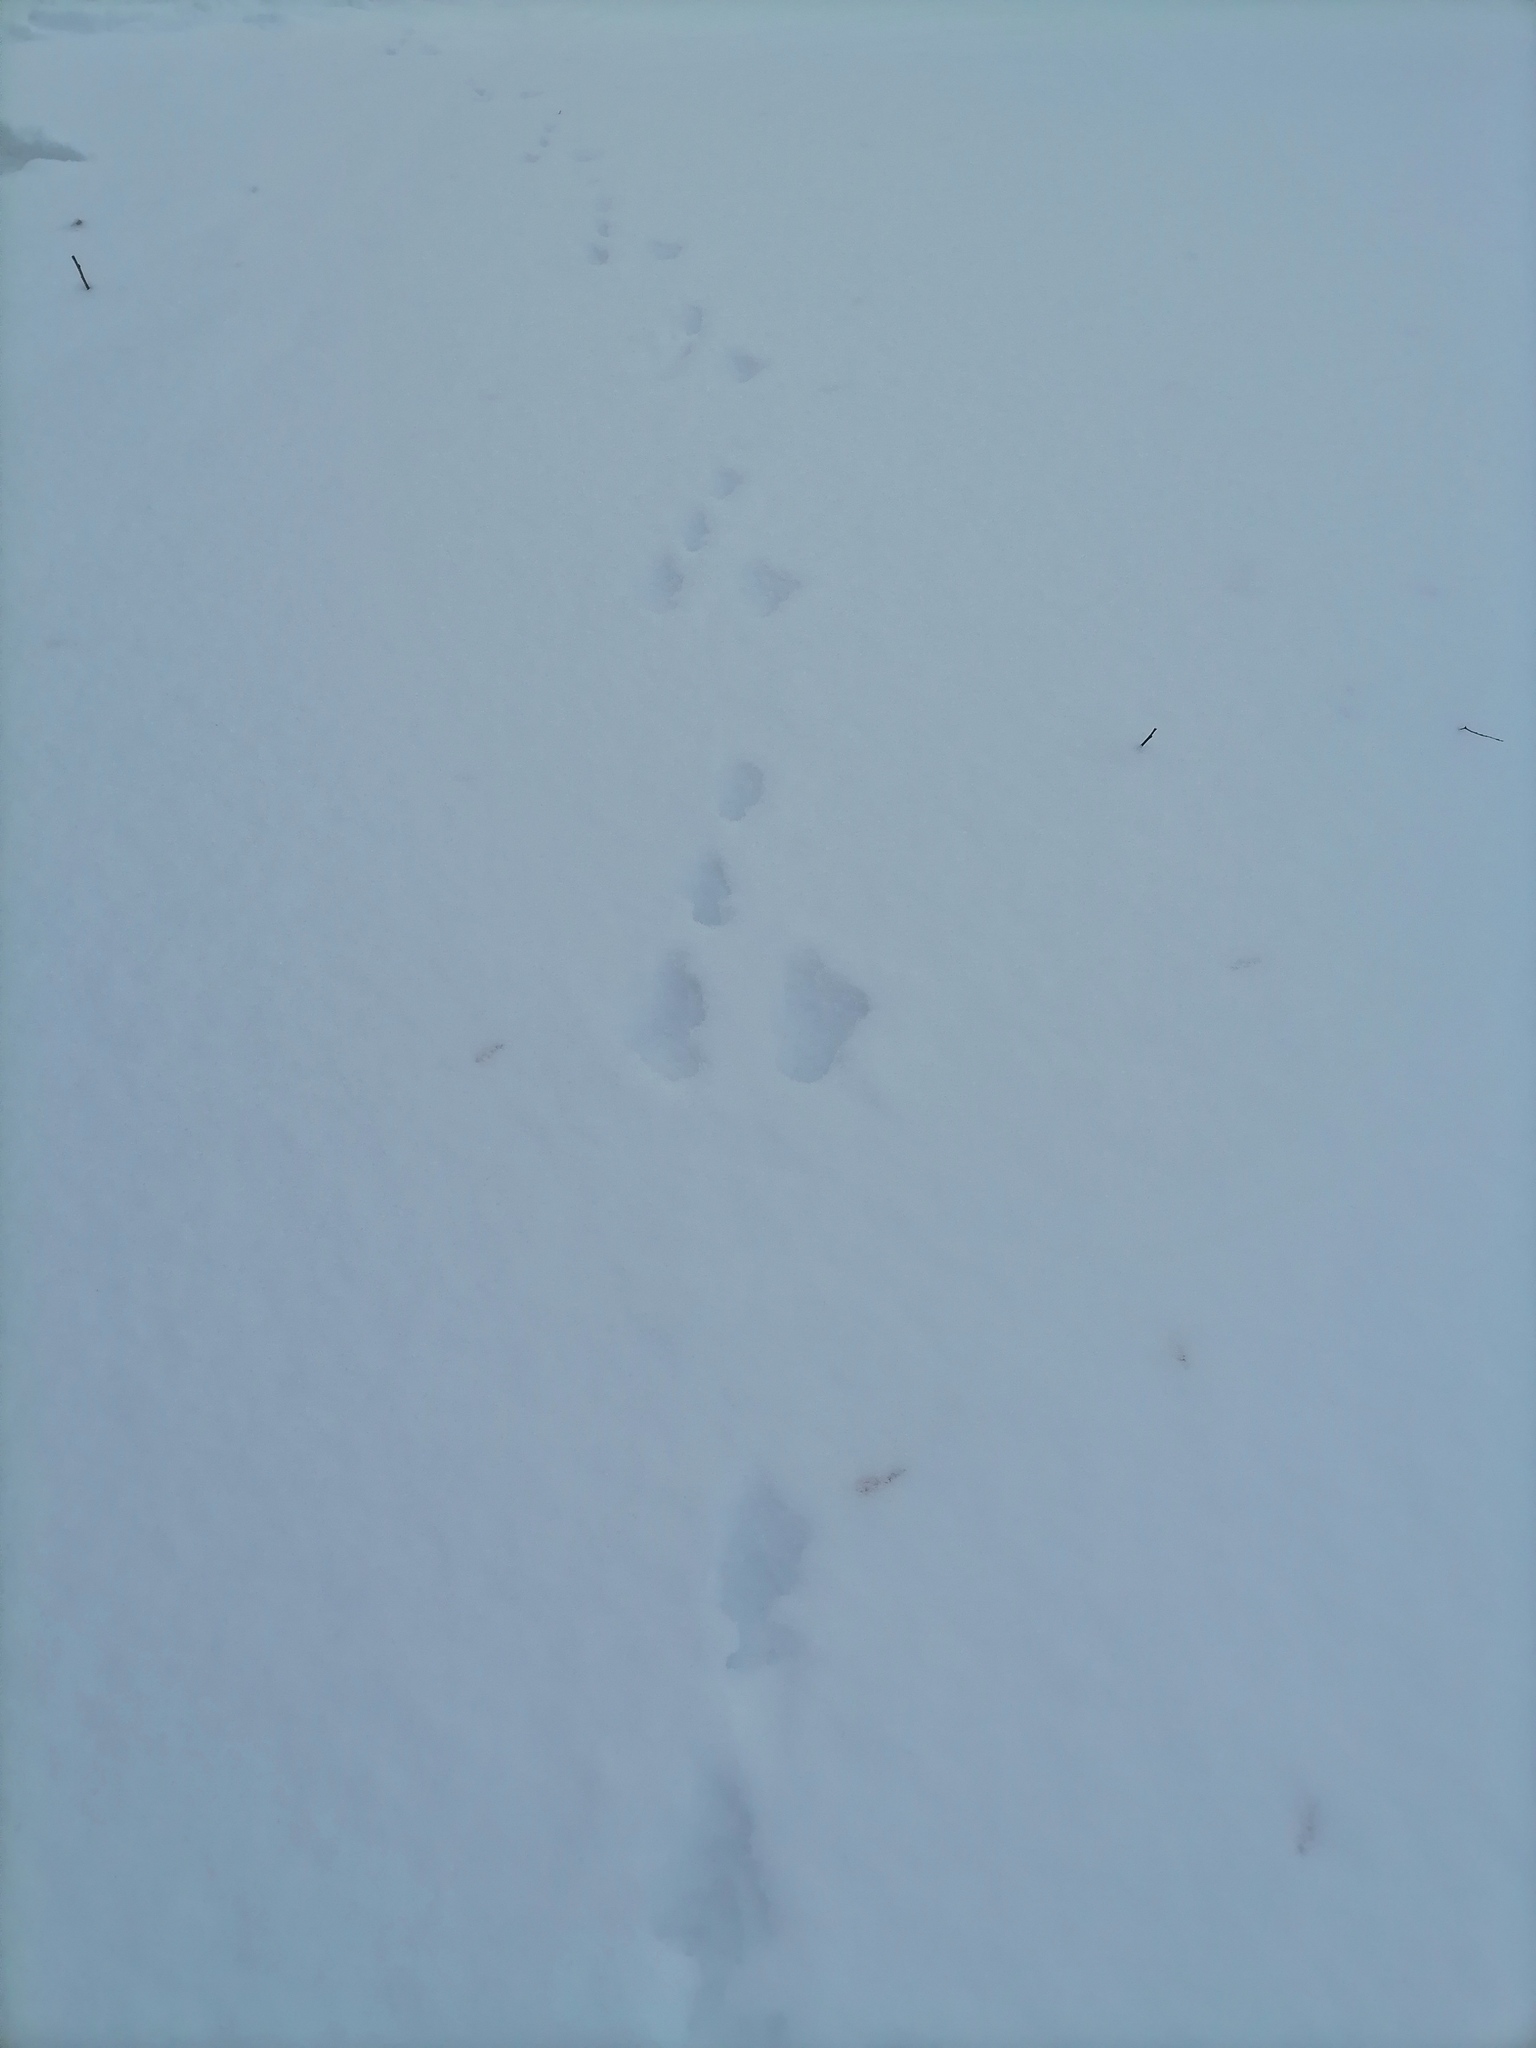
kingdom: Animalia
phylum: Chordata
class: Mammalia
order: Lagomorpha
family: Leporidae
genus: Lepus
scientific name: Lepus
